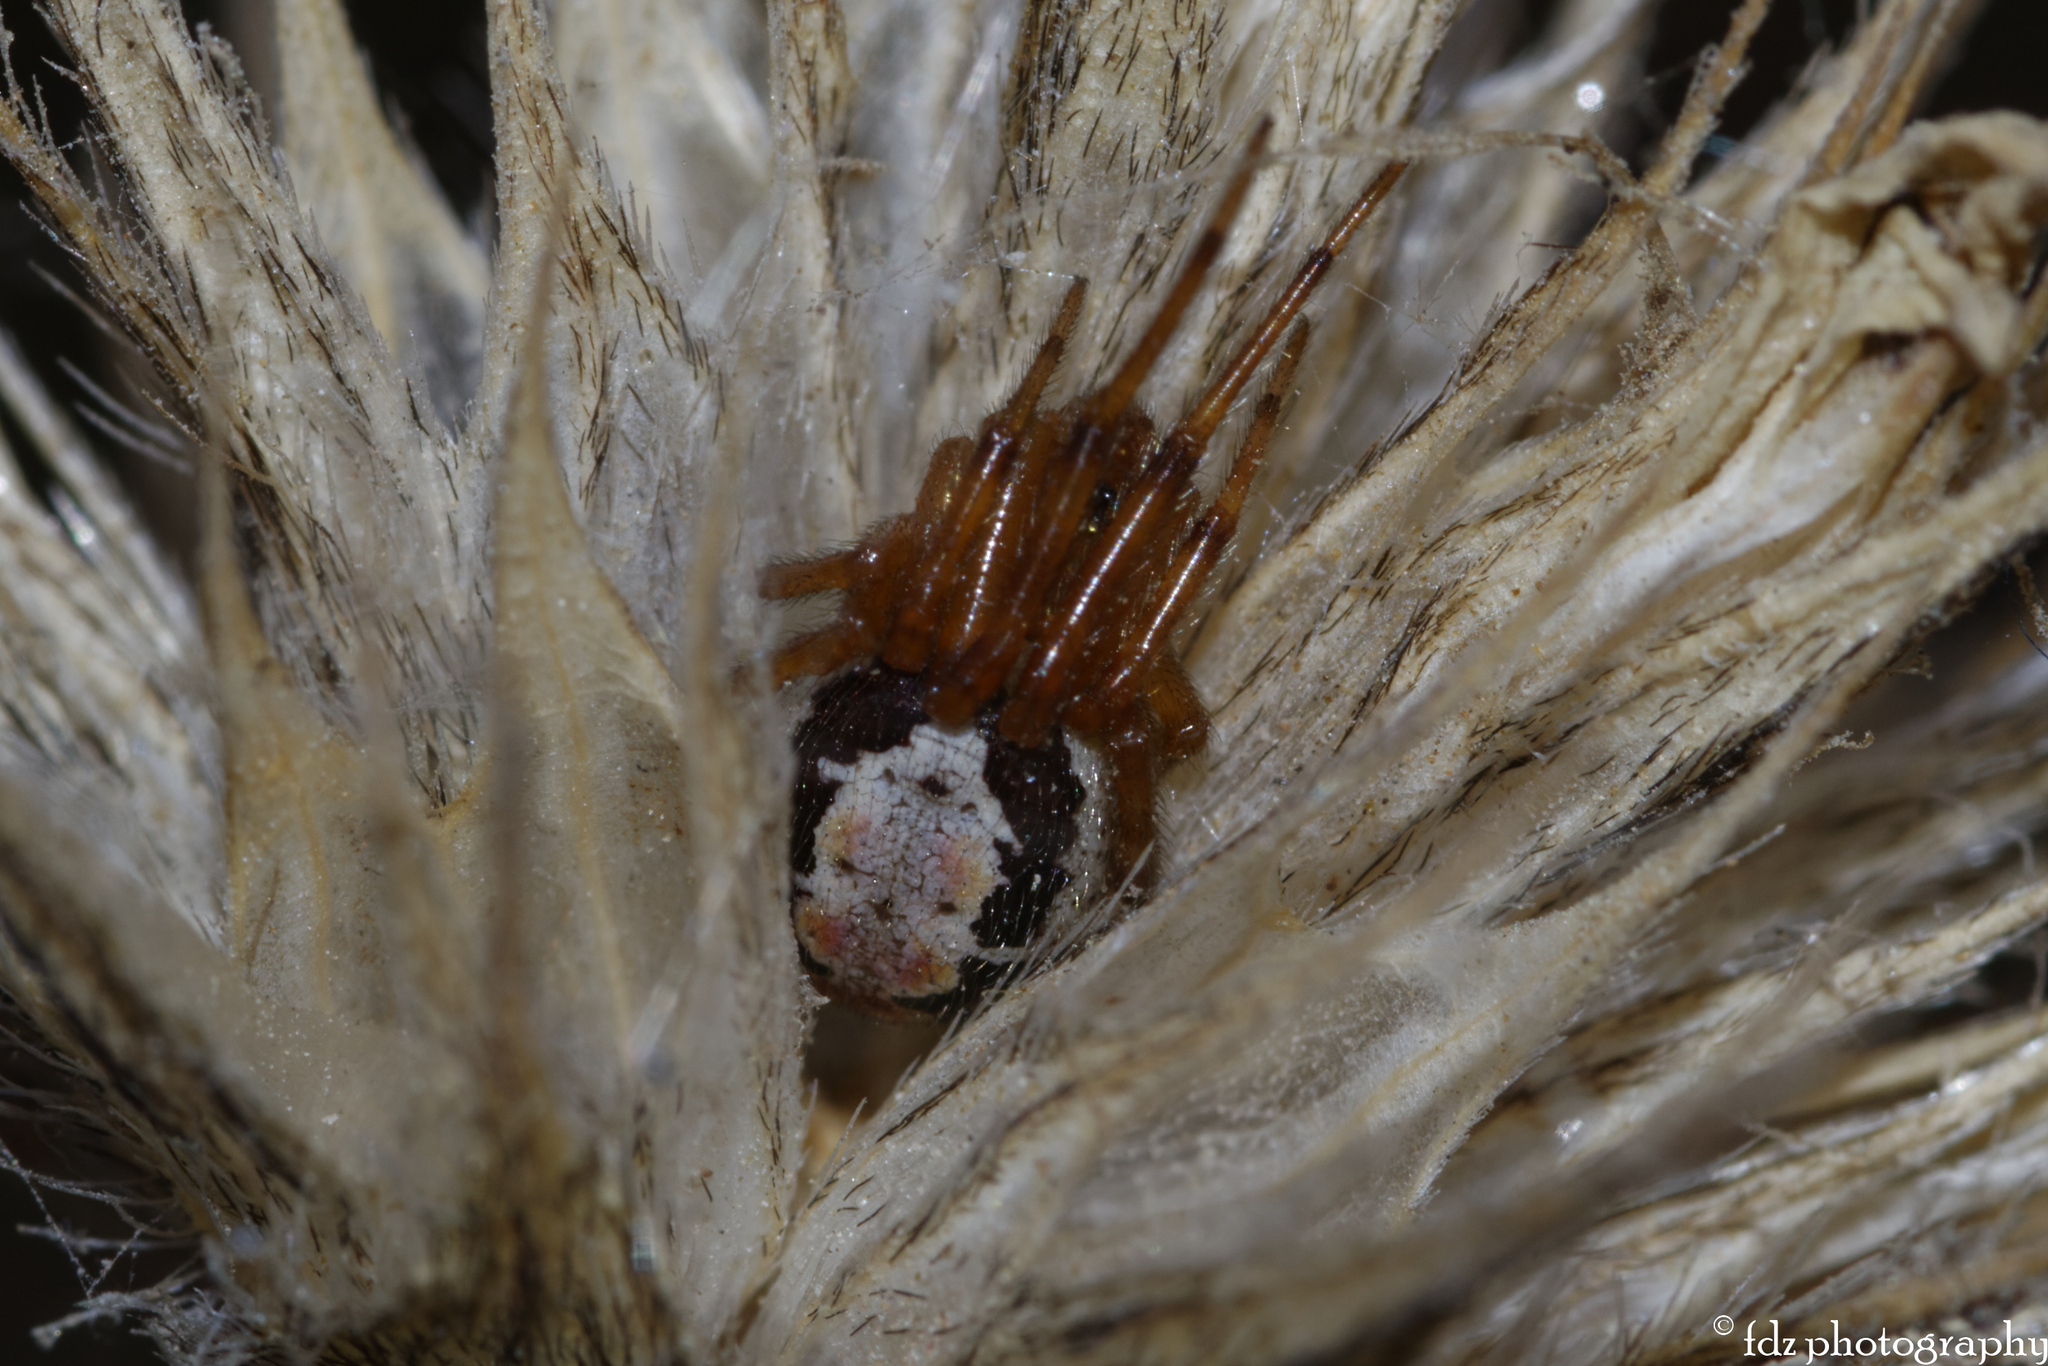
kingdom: Animalia
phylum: Arthropoda
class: Arachnida
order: Araneae
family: Theridiidae
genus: Steatoda
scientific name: Steatoda nobilis
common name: Cobweb weaver
